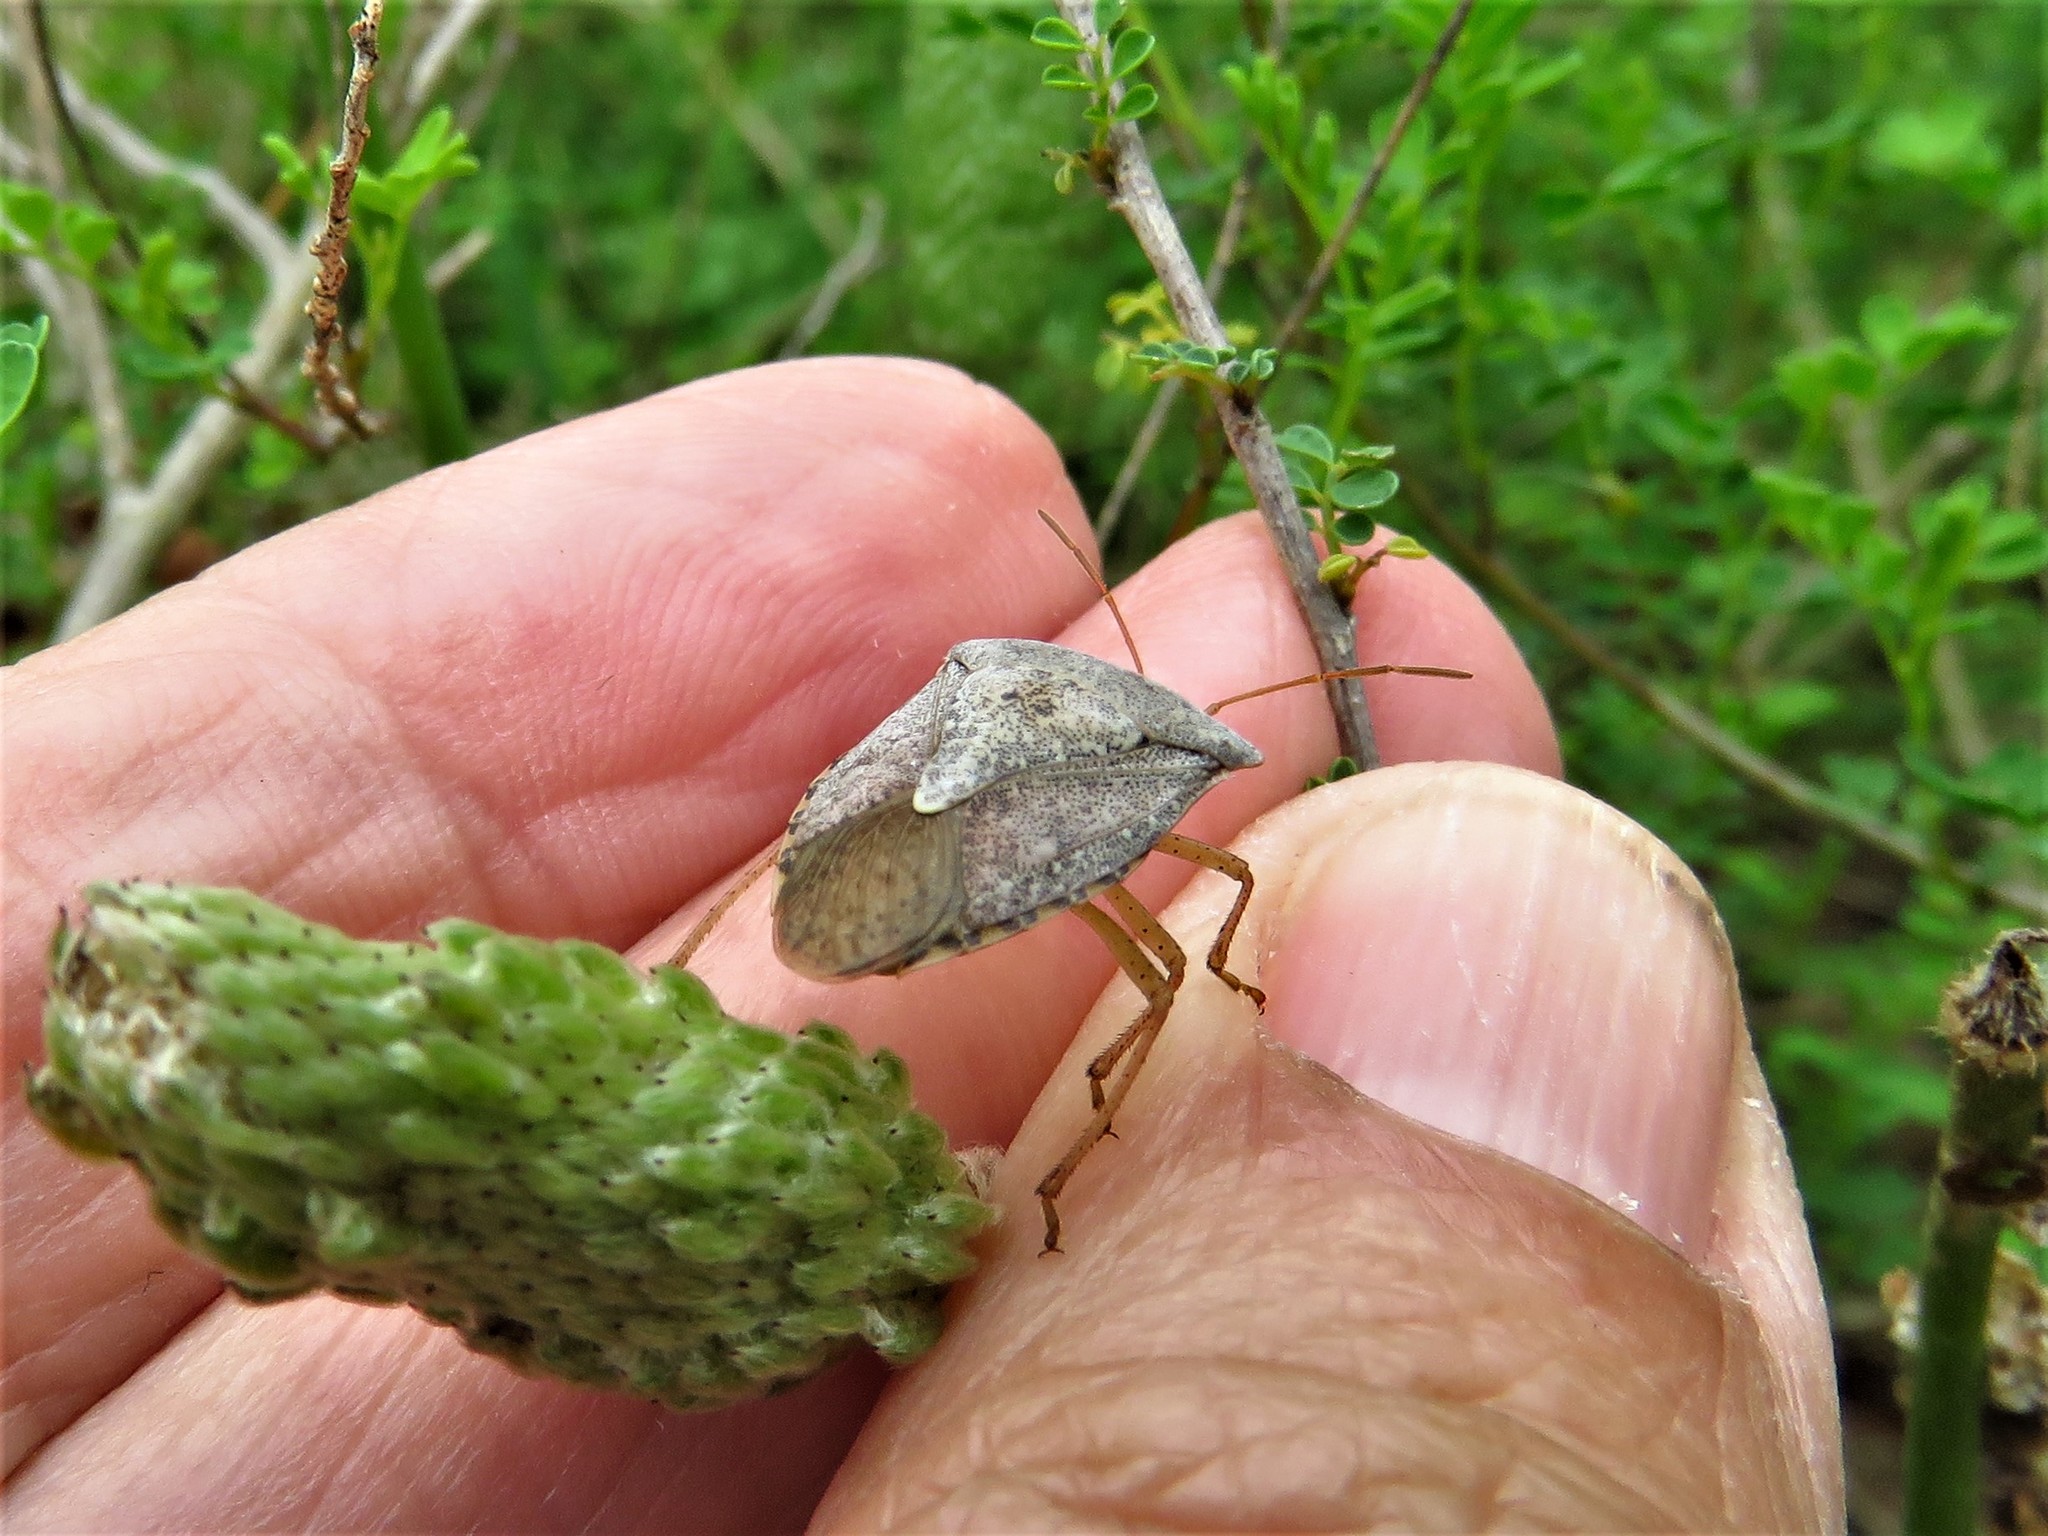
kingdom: Animalia
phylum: Arthropoda
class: Insecta
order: Hemiptera
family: Pentatomidae
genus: Euschistus
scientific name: Euschistus servus
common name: Brown stink bug
